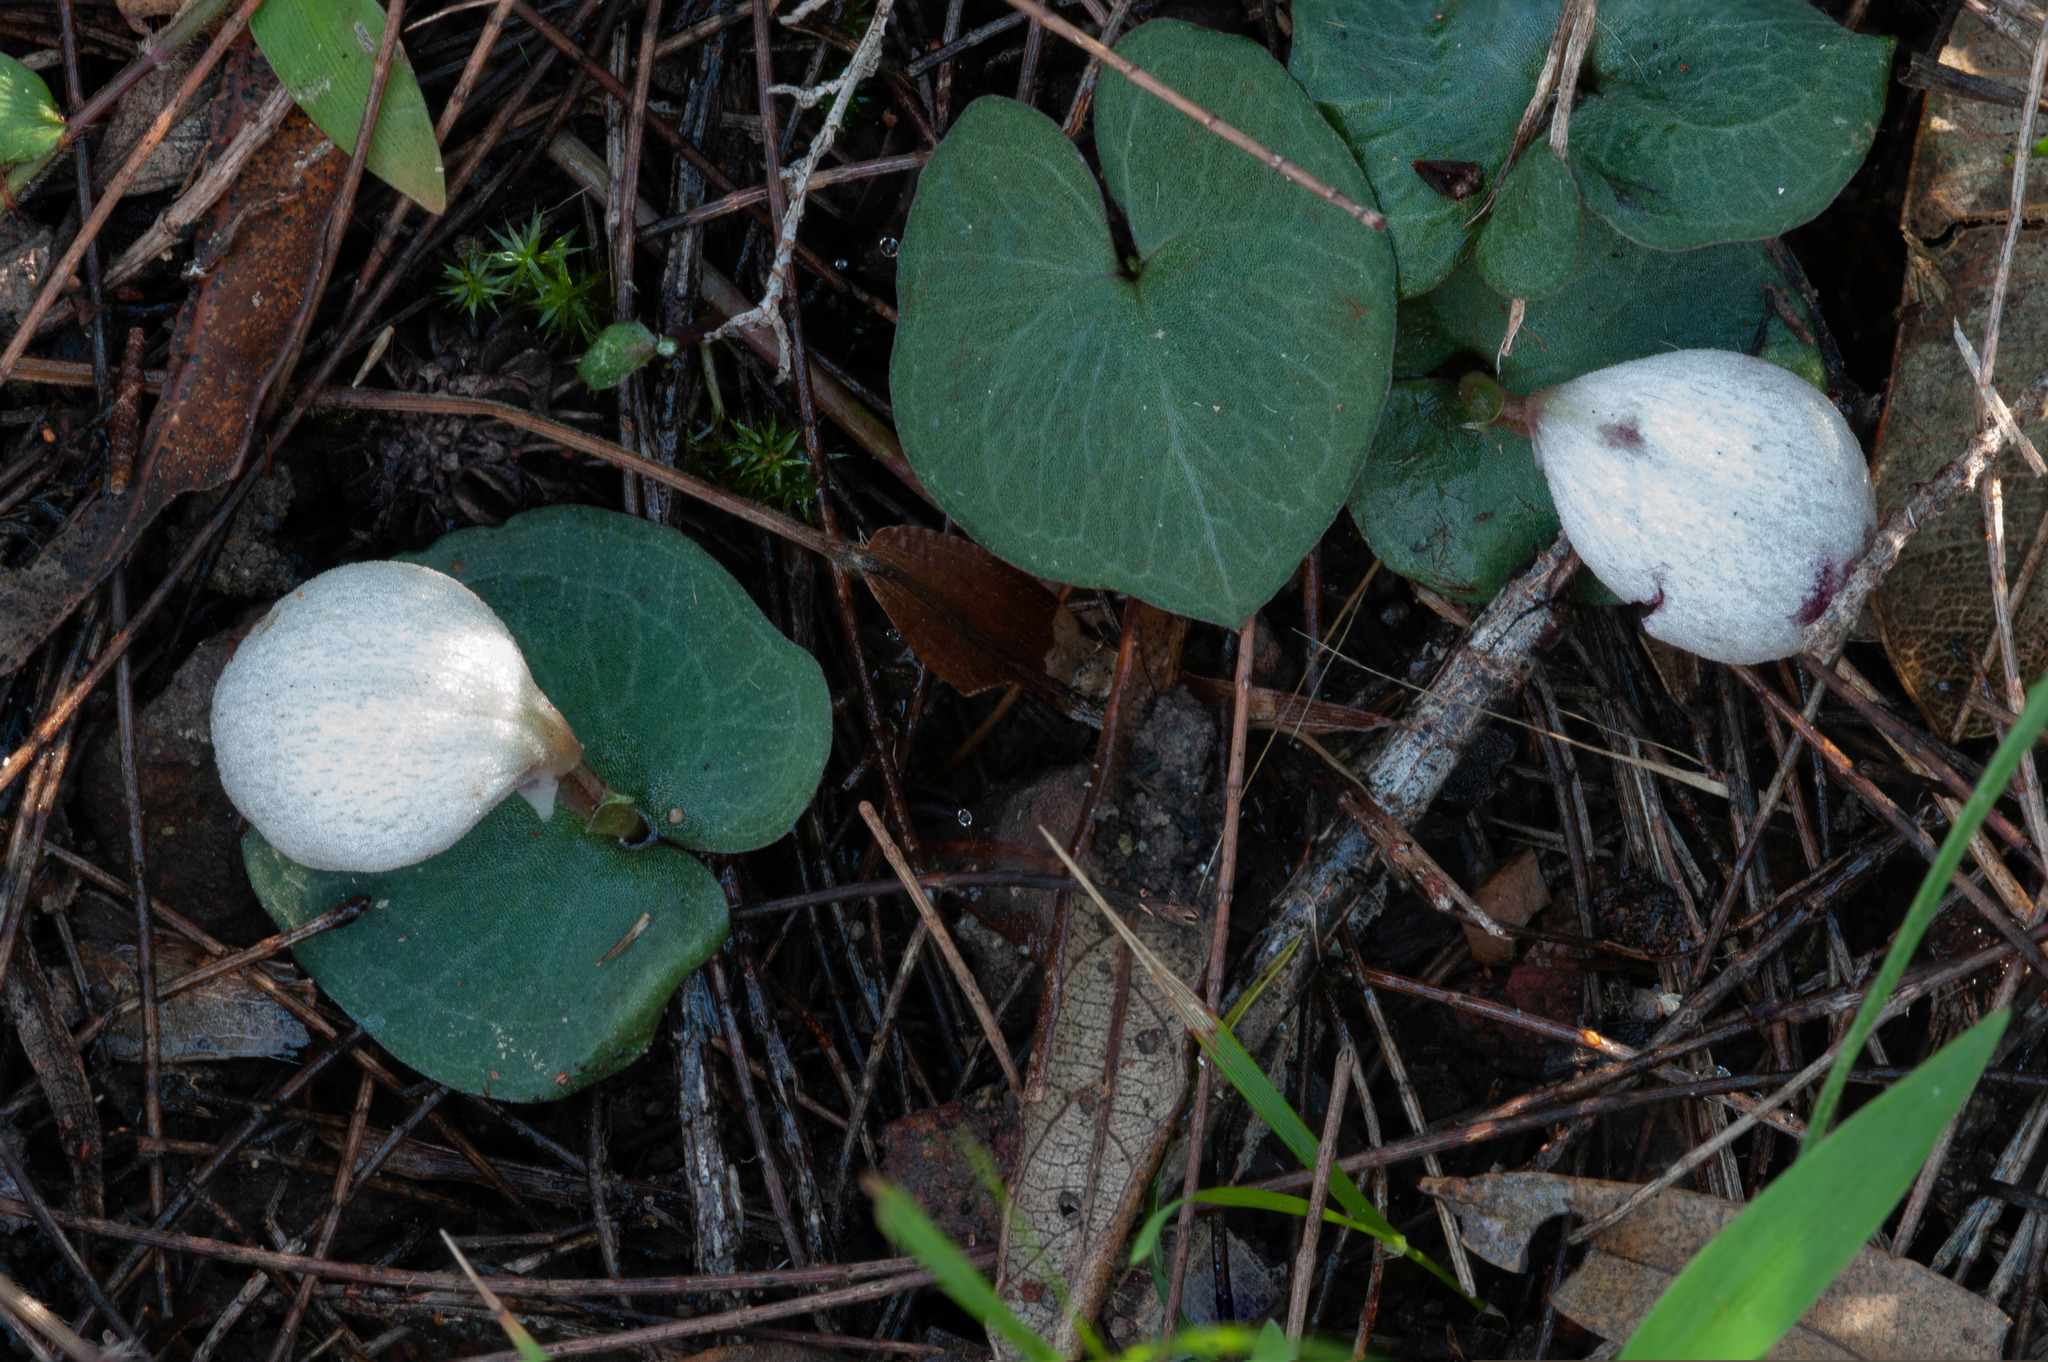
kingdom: Plantae
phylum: Tracheophyta
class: Liliopsida
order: Asparagales
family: Orchidaceae
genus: Corybas
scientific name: Corybas barbarae
